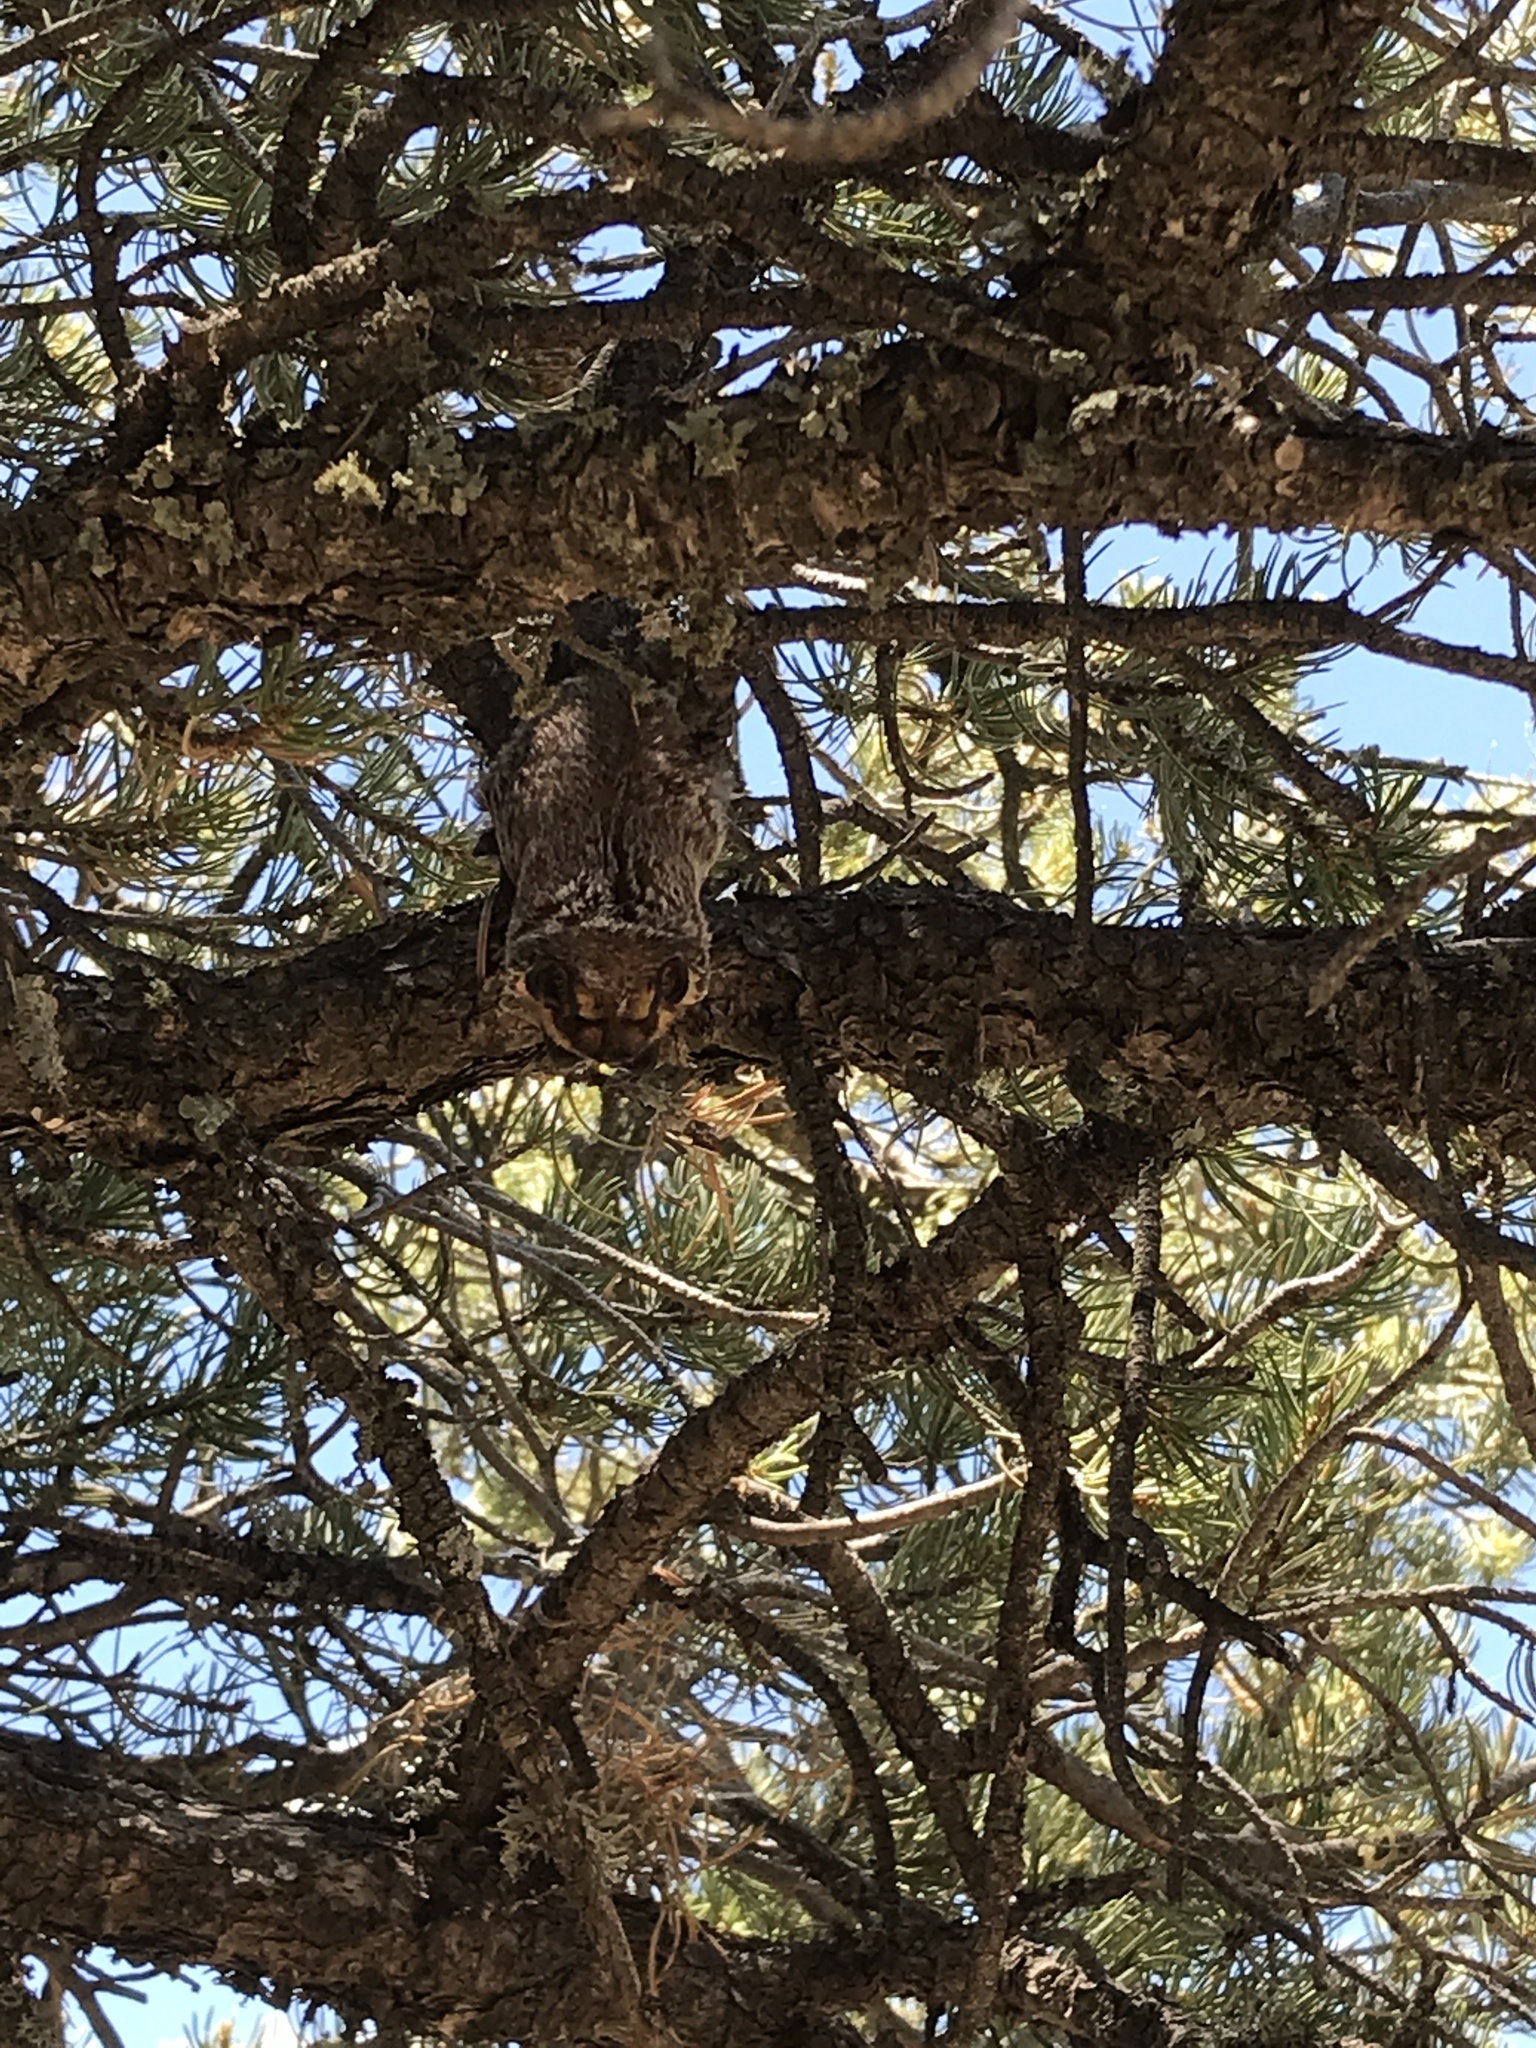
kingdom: Animalia
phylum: Chordata
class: Mammalia
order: Chiroptera
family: Vespertilionidae
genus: Aeorestes
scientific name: Aeorestes cinereus
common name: North american hoary bat
